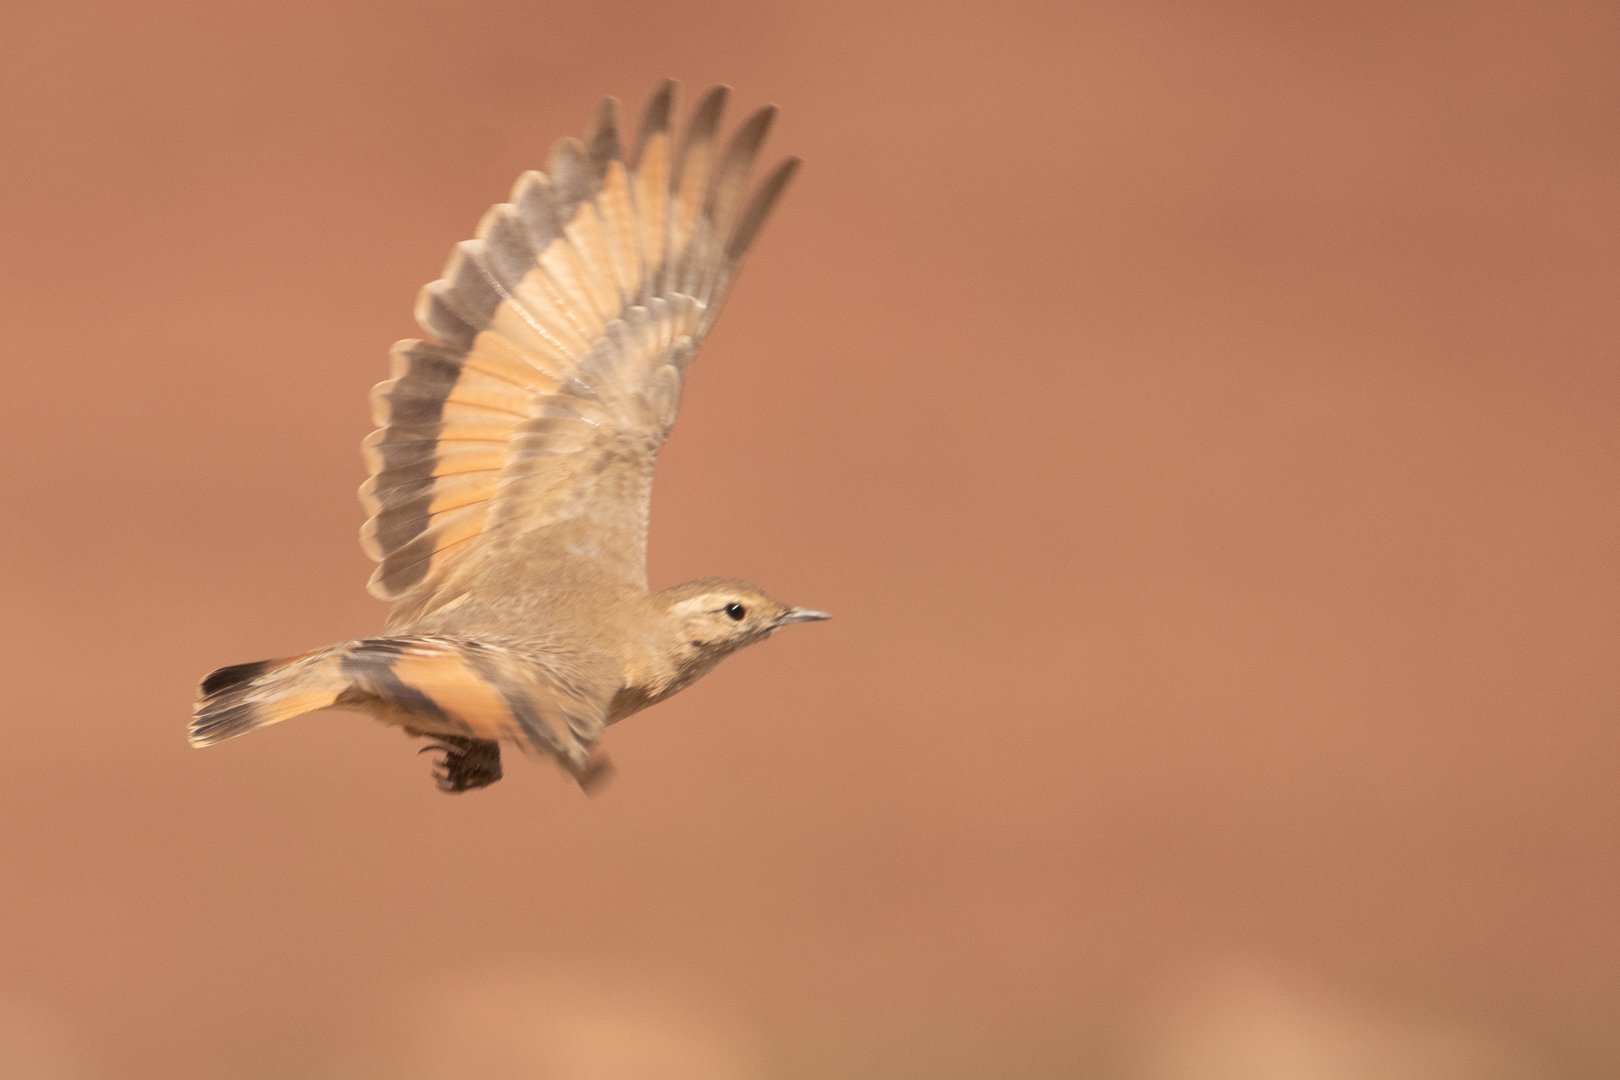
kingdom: Animalia
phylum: Chordata
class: Aves
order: Passeriformes
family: Furnariidae
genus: Geositta
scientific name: Geositta rufipennis
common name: Rufous-banded miner
